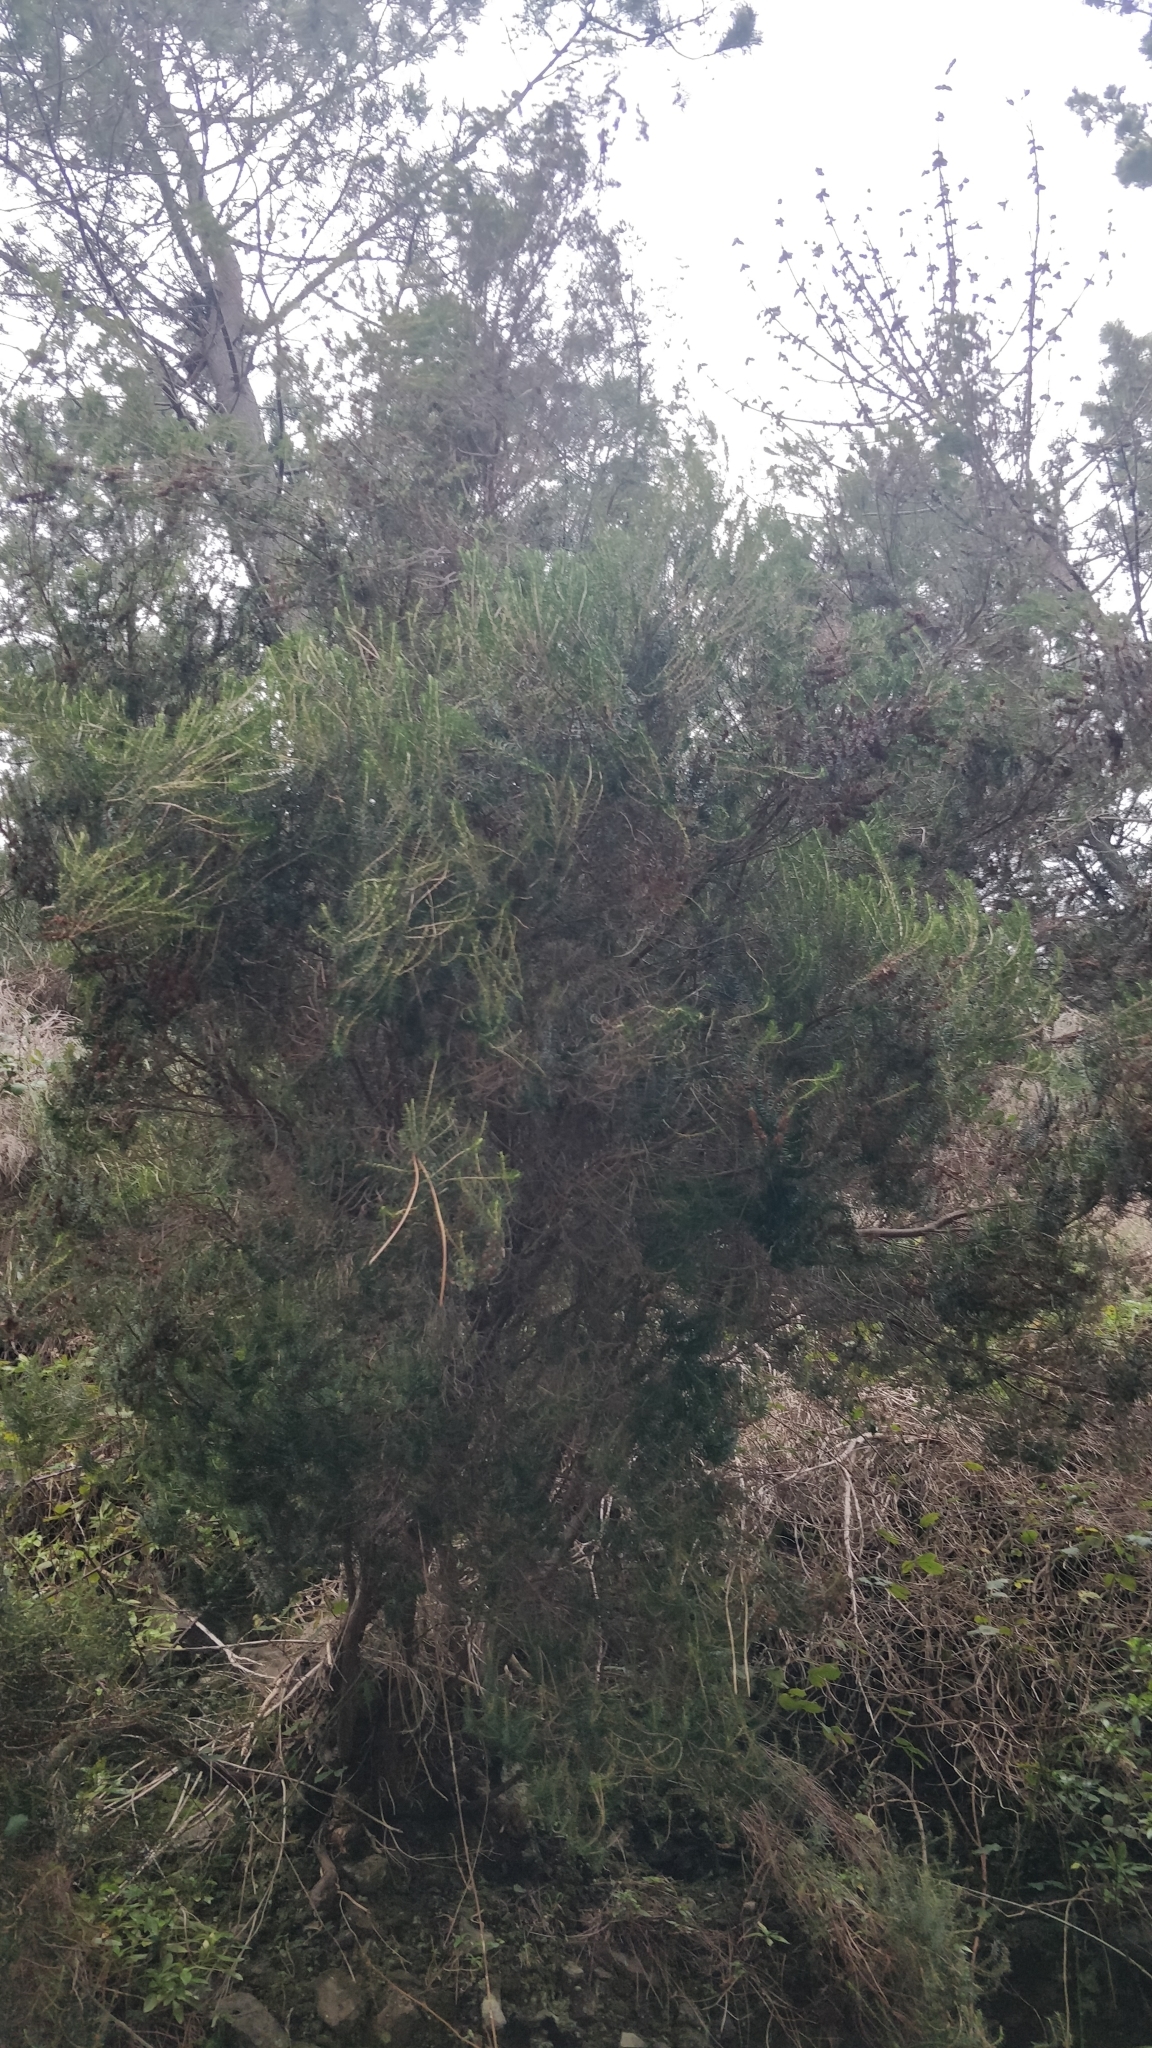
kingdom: Plantae
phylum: Tracheophyta
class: Magnoliopsida
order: Ericales
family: Ericaceae
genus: Erica
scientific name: Erica platycodon
